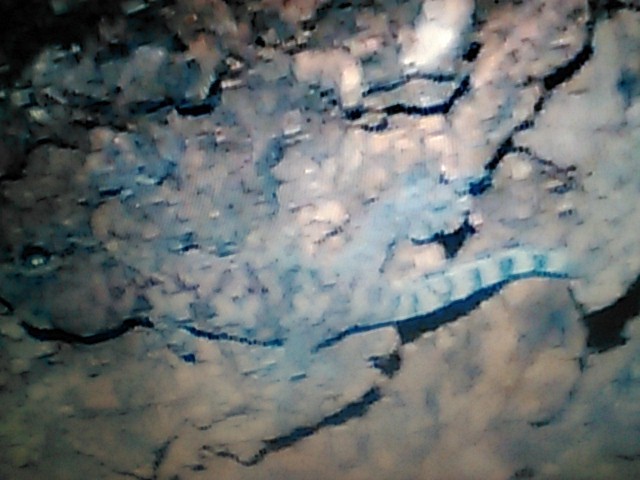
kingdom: Animalia
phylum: Chordata
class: Squamata
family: Gekkonidae
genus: Hemidactylus
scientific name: Hemidactylus turcicus
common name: Turkish gecko
